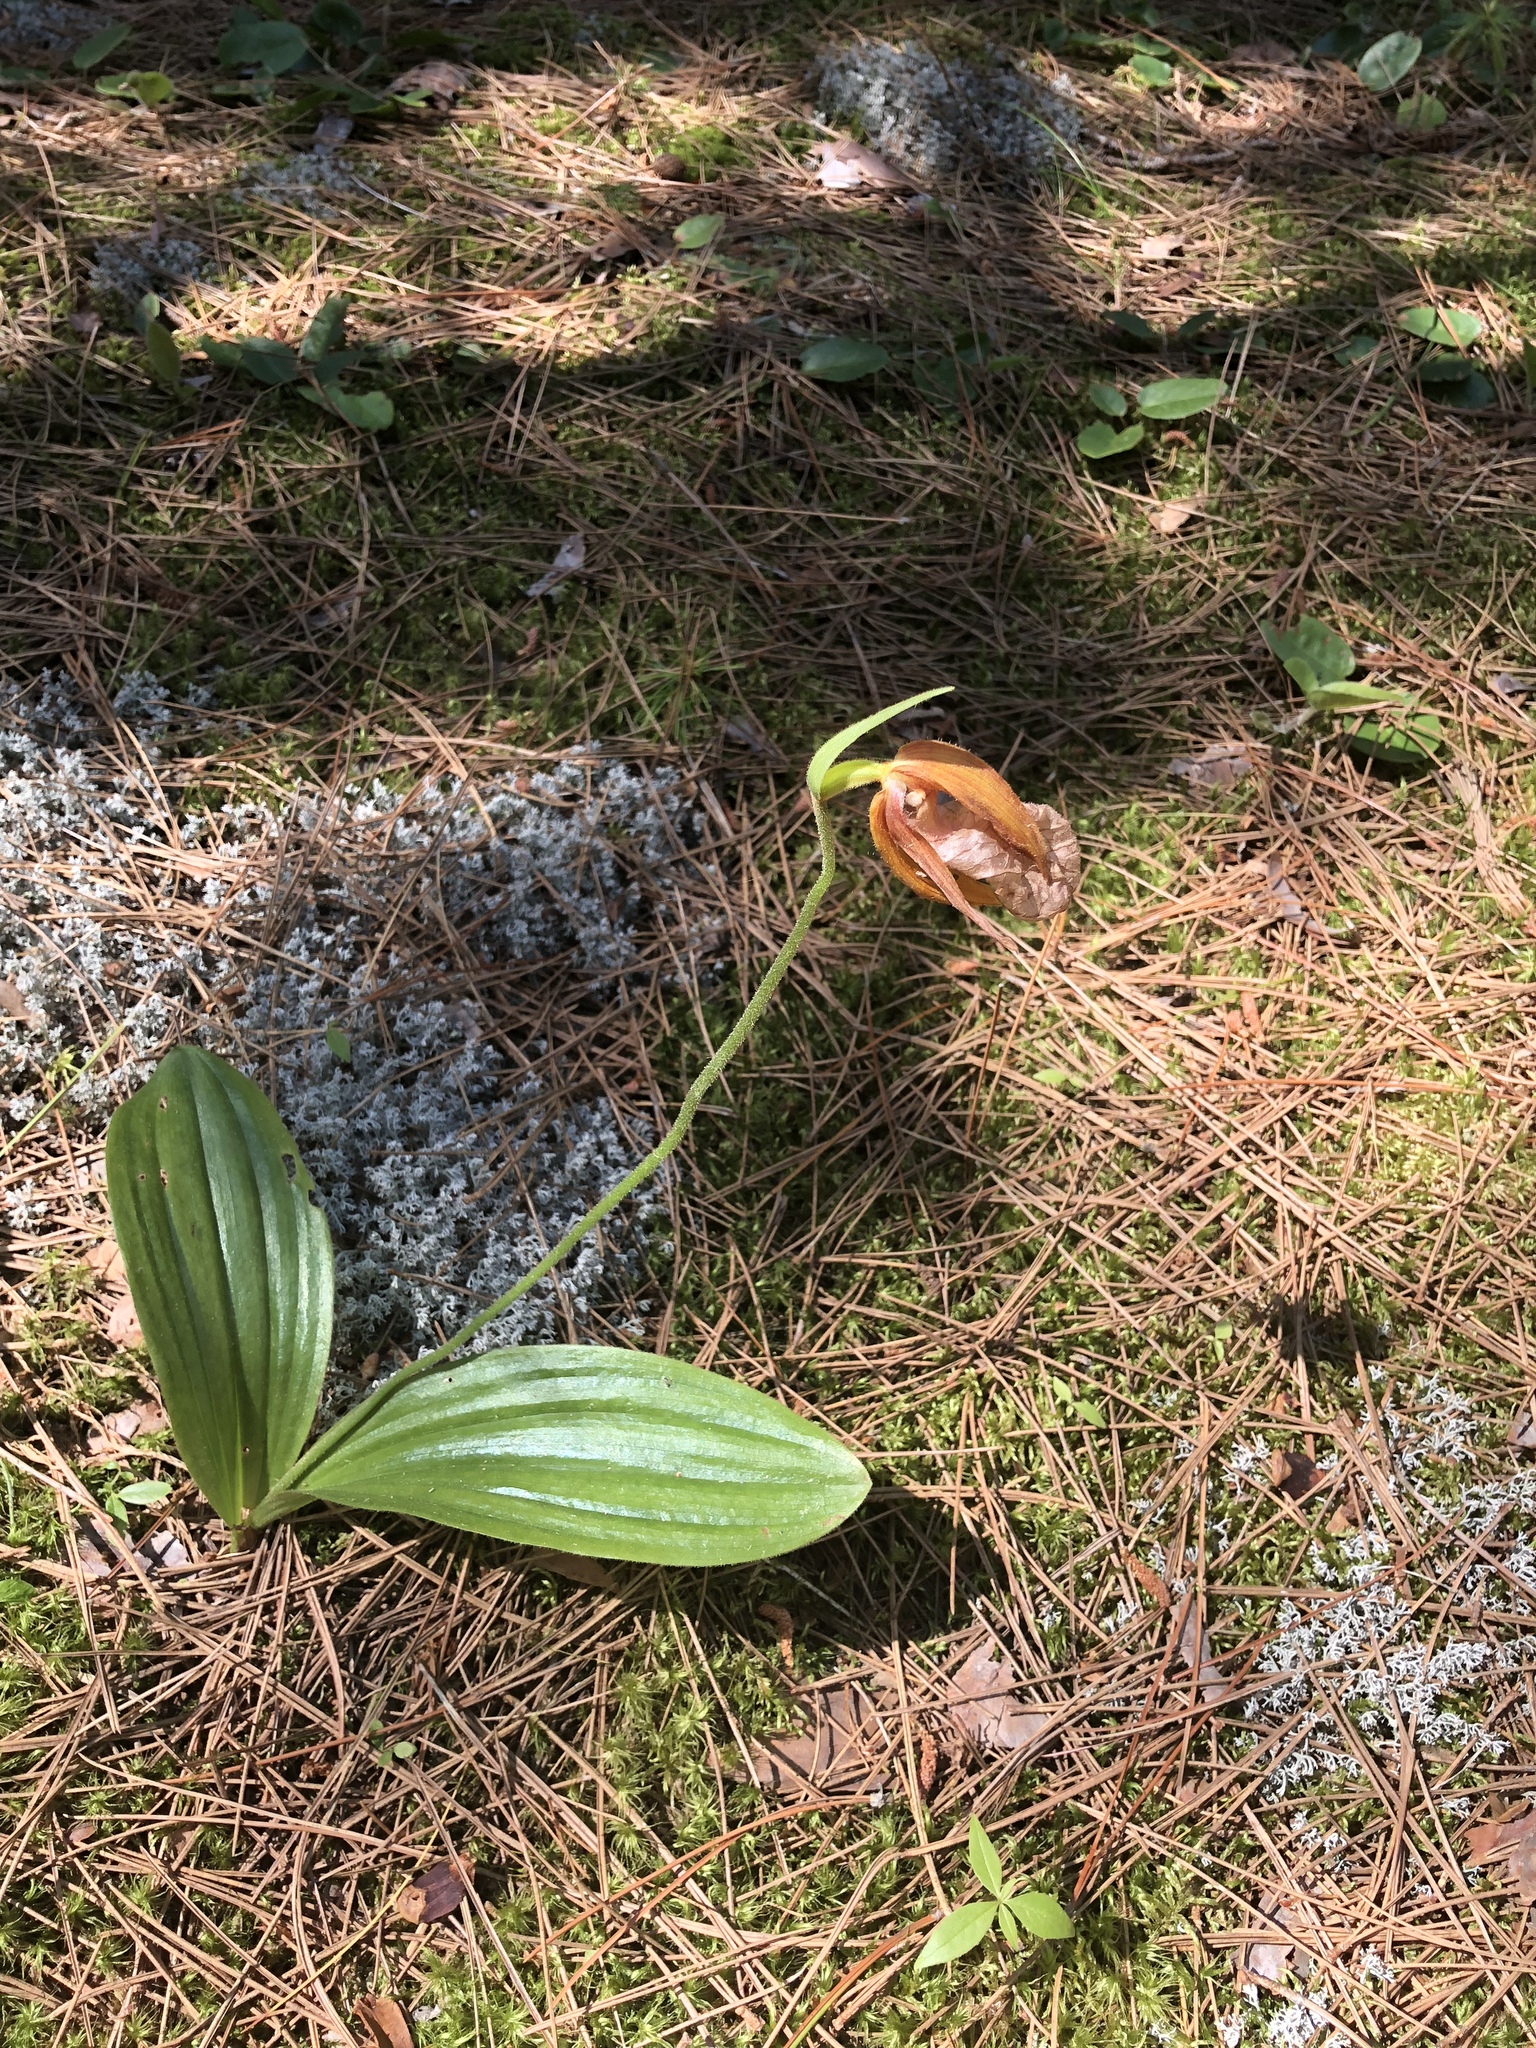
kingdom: Plantae
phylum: Tracheophyta
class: Liliopsida
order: Asparagales
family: Orchidaceae
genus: Cypripedium
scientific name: Cypripedium acaule
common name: Pink lady's-slipper
